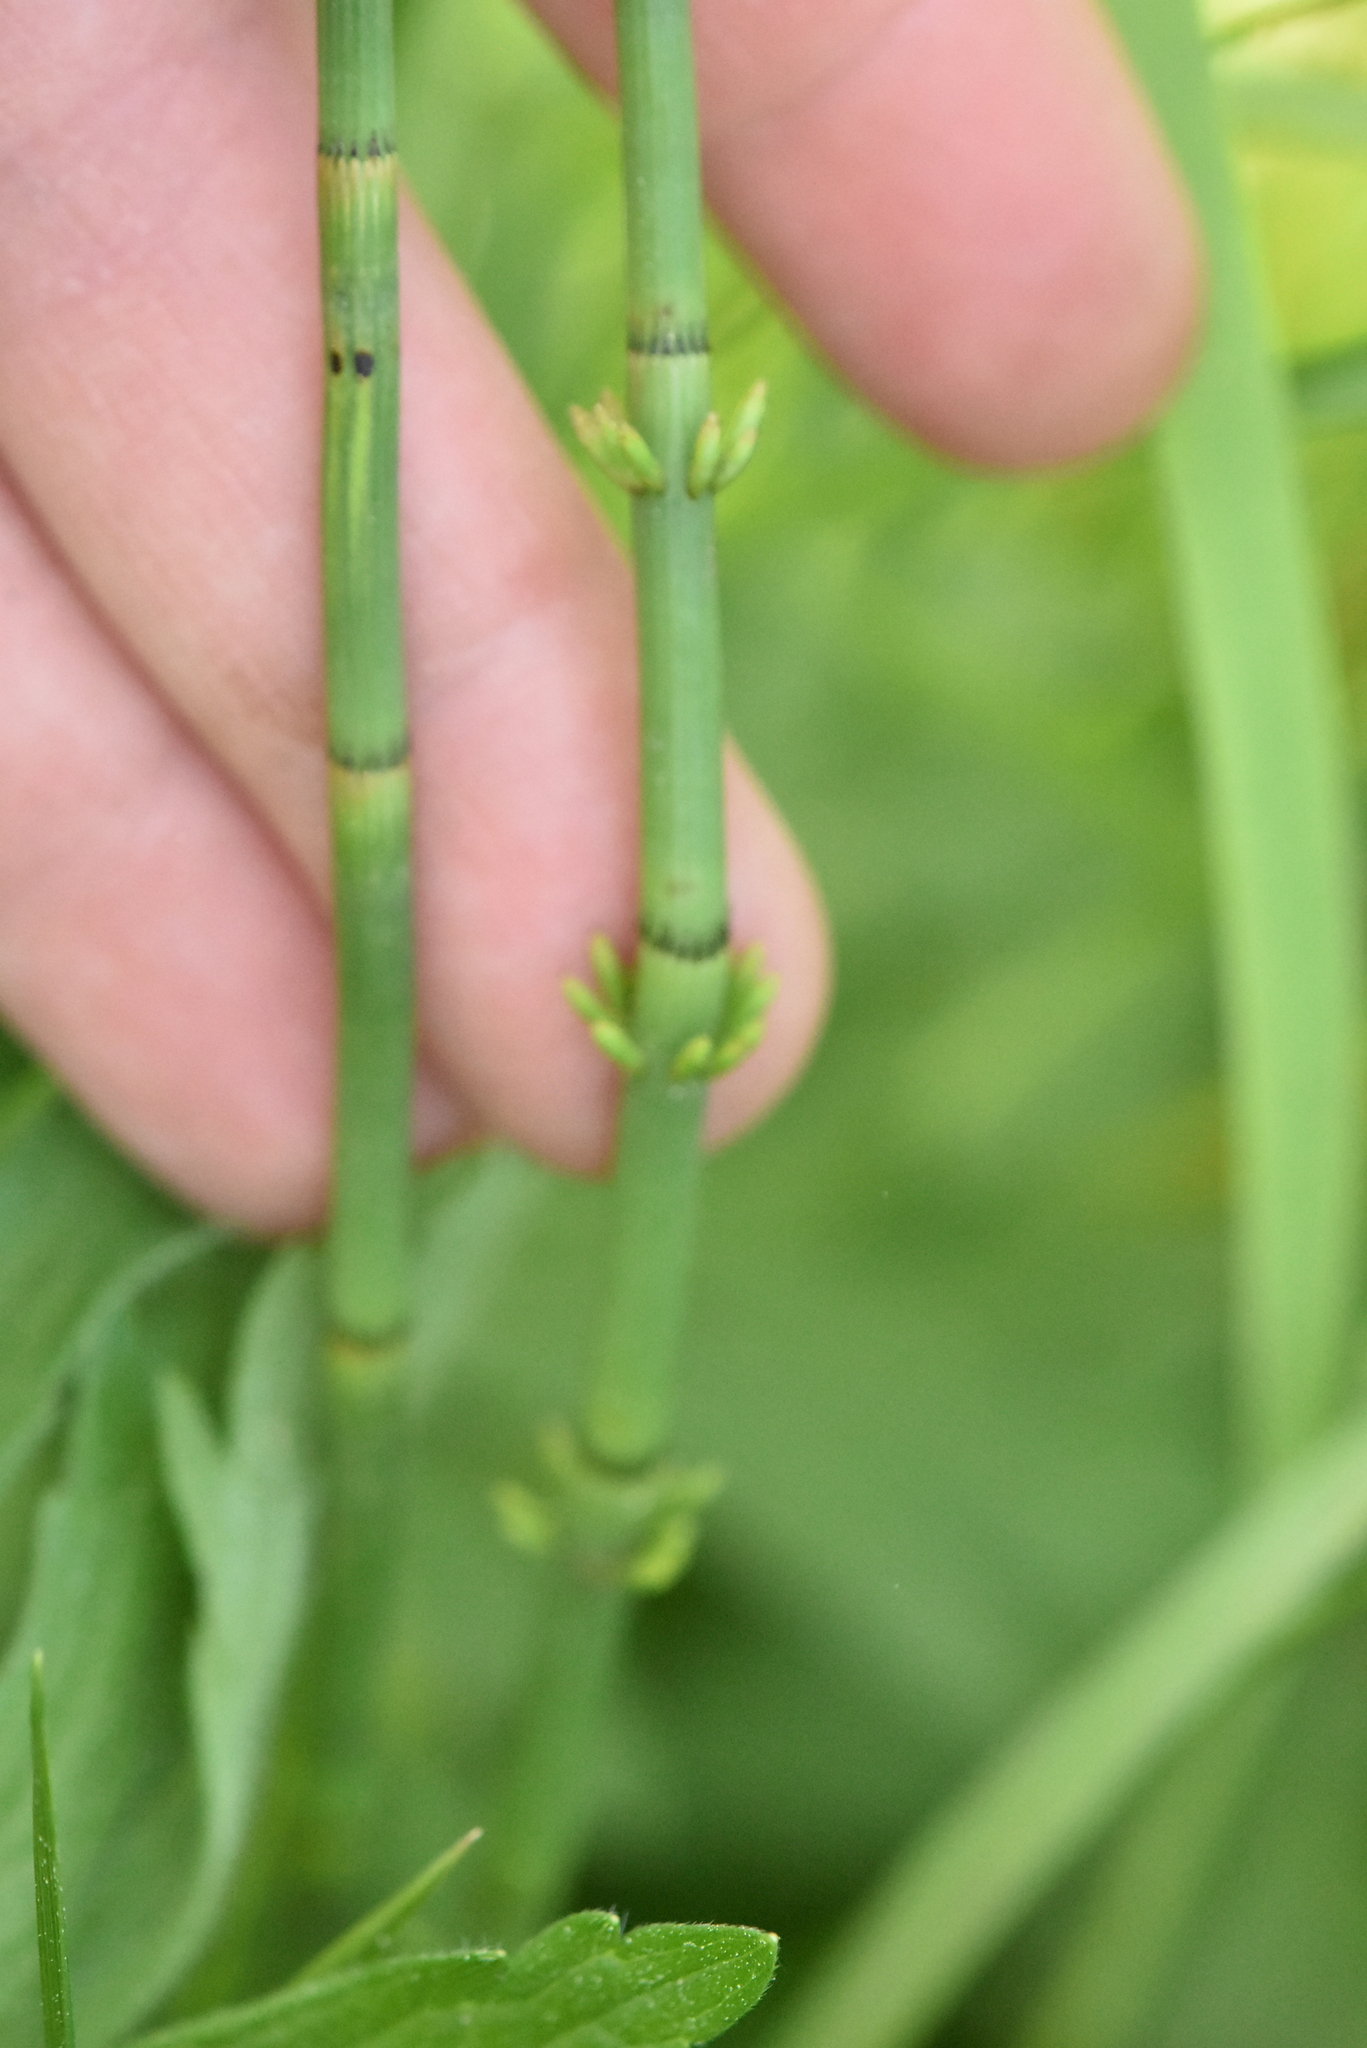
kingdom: Plantae
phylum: Tracheophyta
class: Polypodiopsida
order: Equisetales
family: Equisetaceae
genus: Equisetum
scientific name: Equisetum fluviatile
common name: Water horsetail
